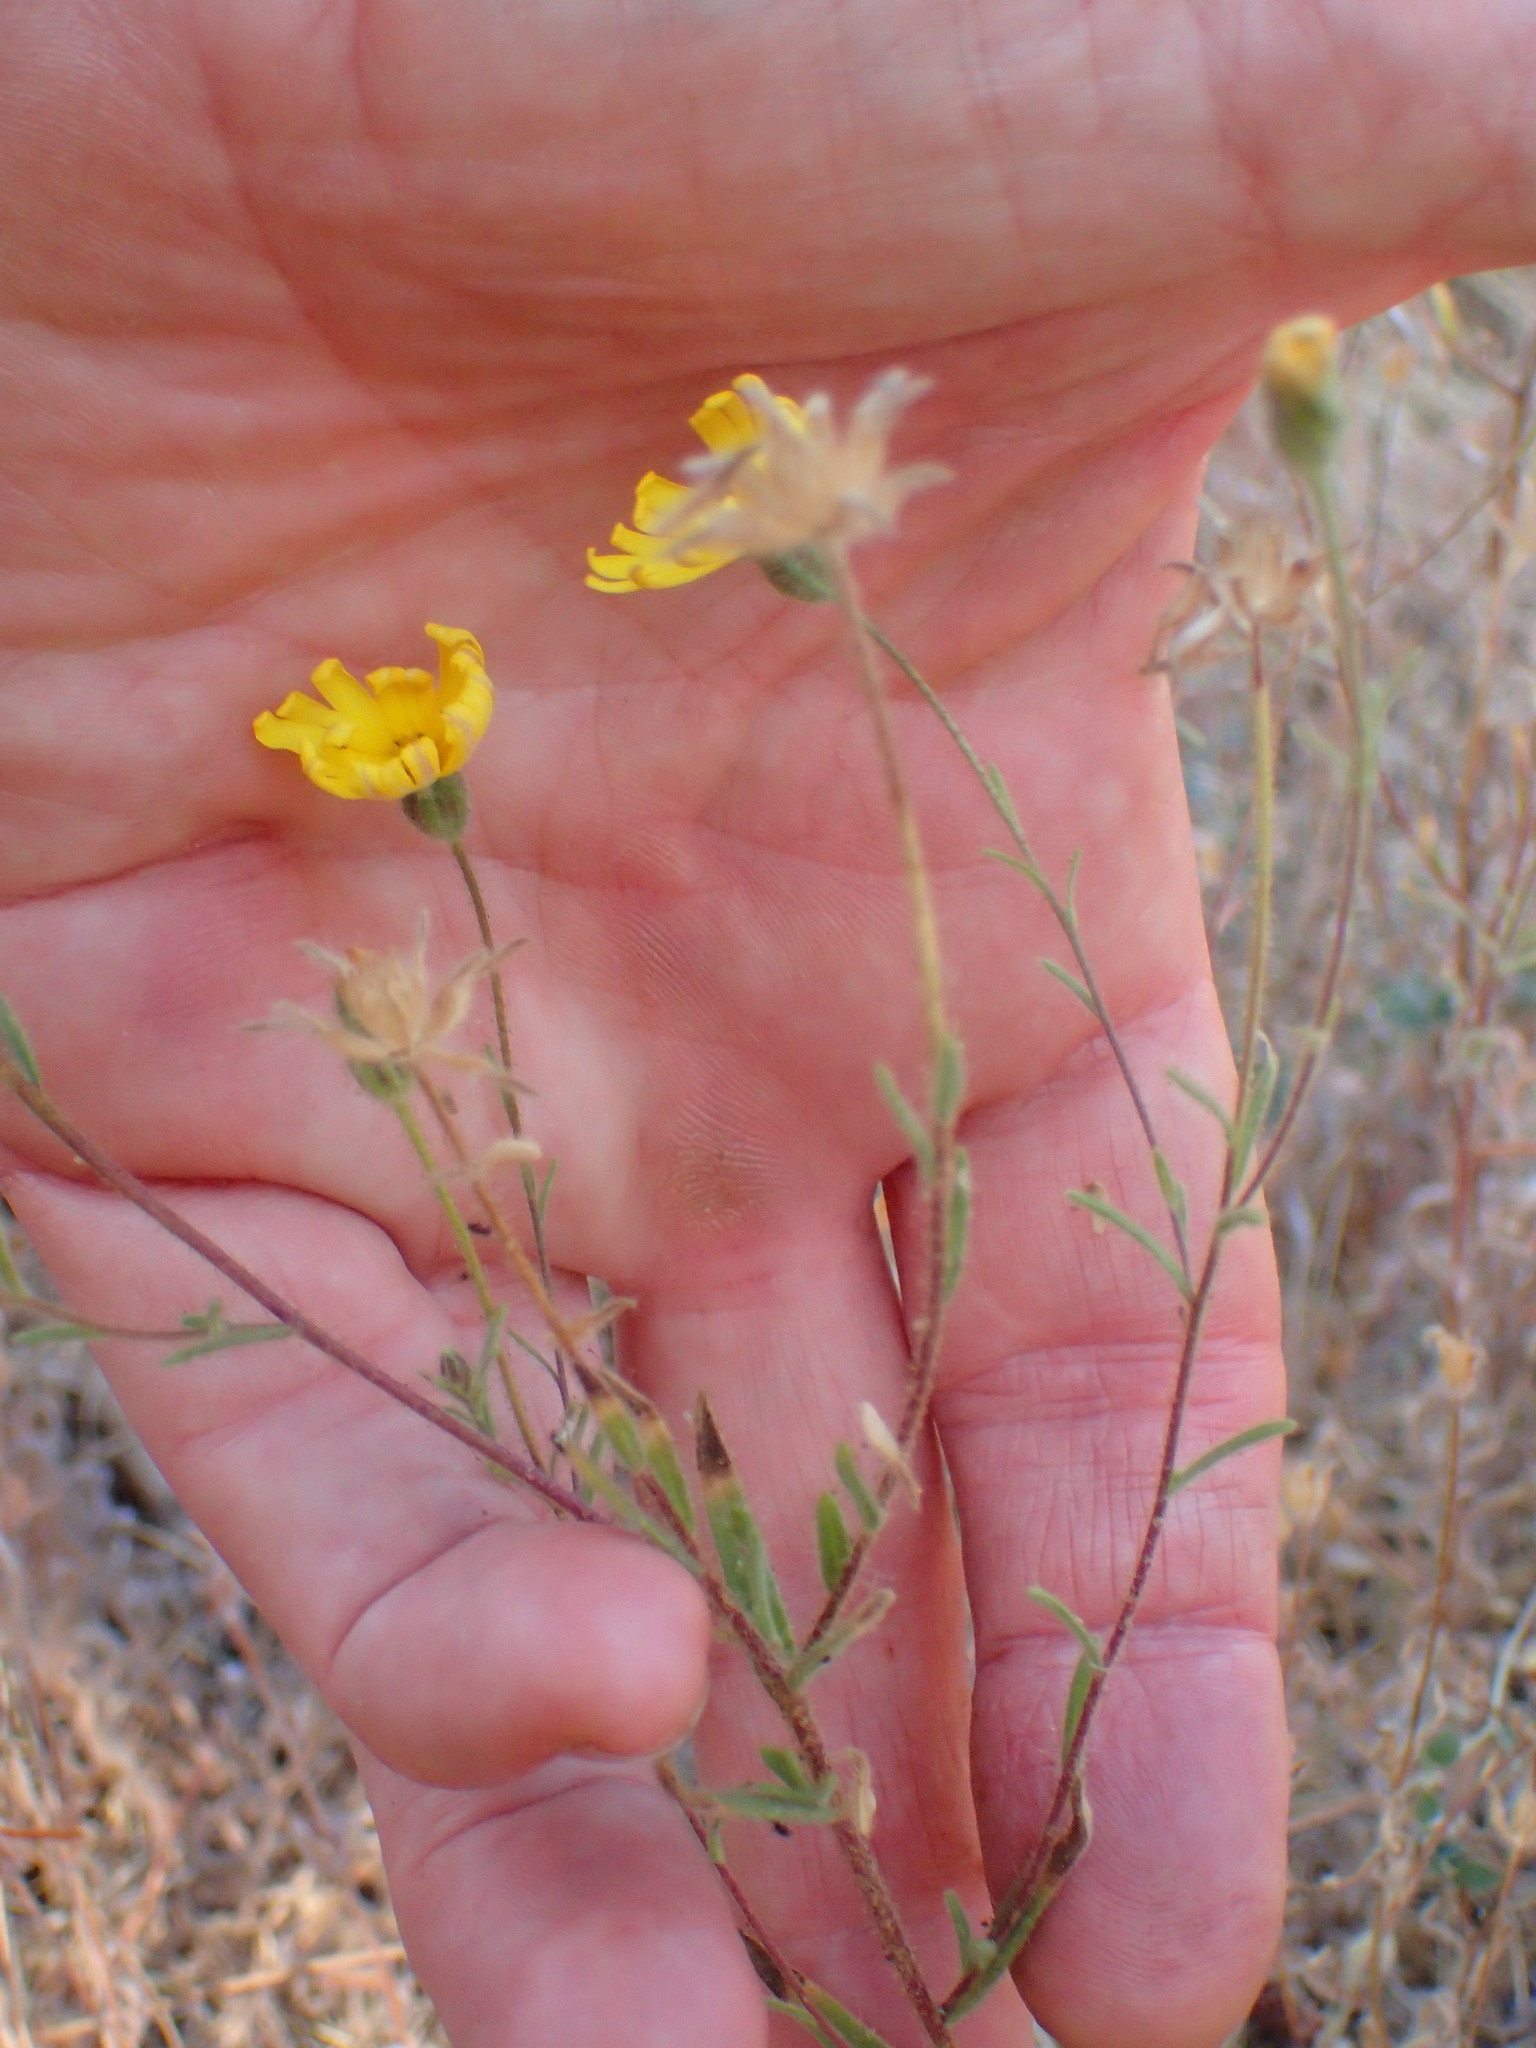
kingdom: Plantae
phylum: Tracheophyta
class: Magnoliopsida
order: Asterales
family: Asteraceae
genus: Madia
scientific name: Madia elegans
